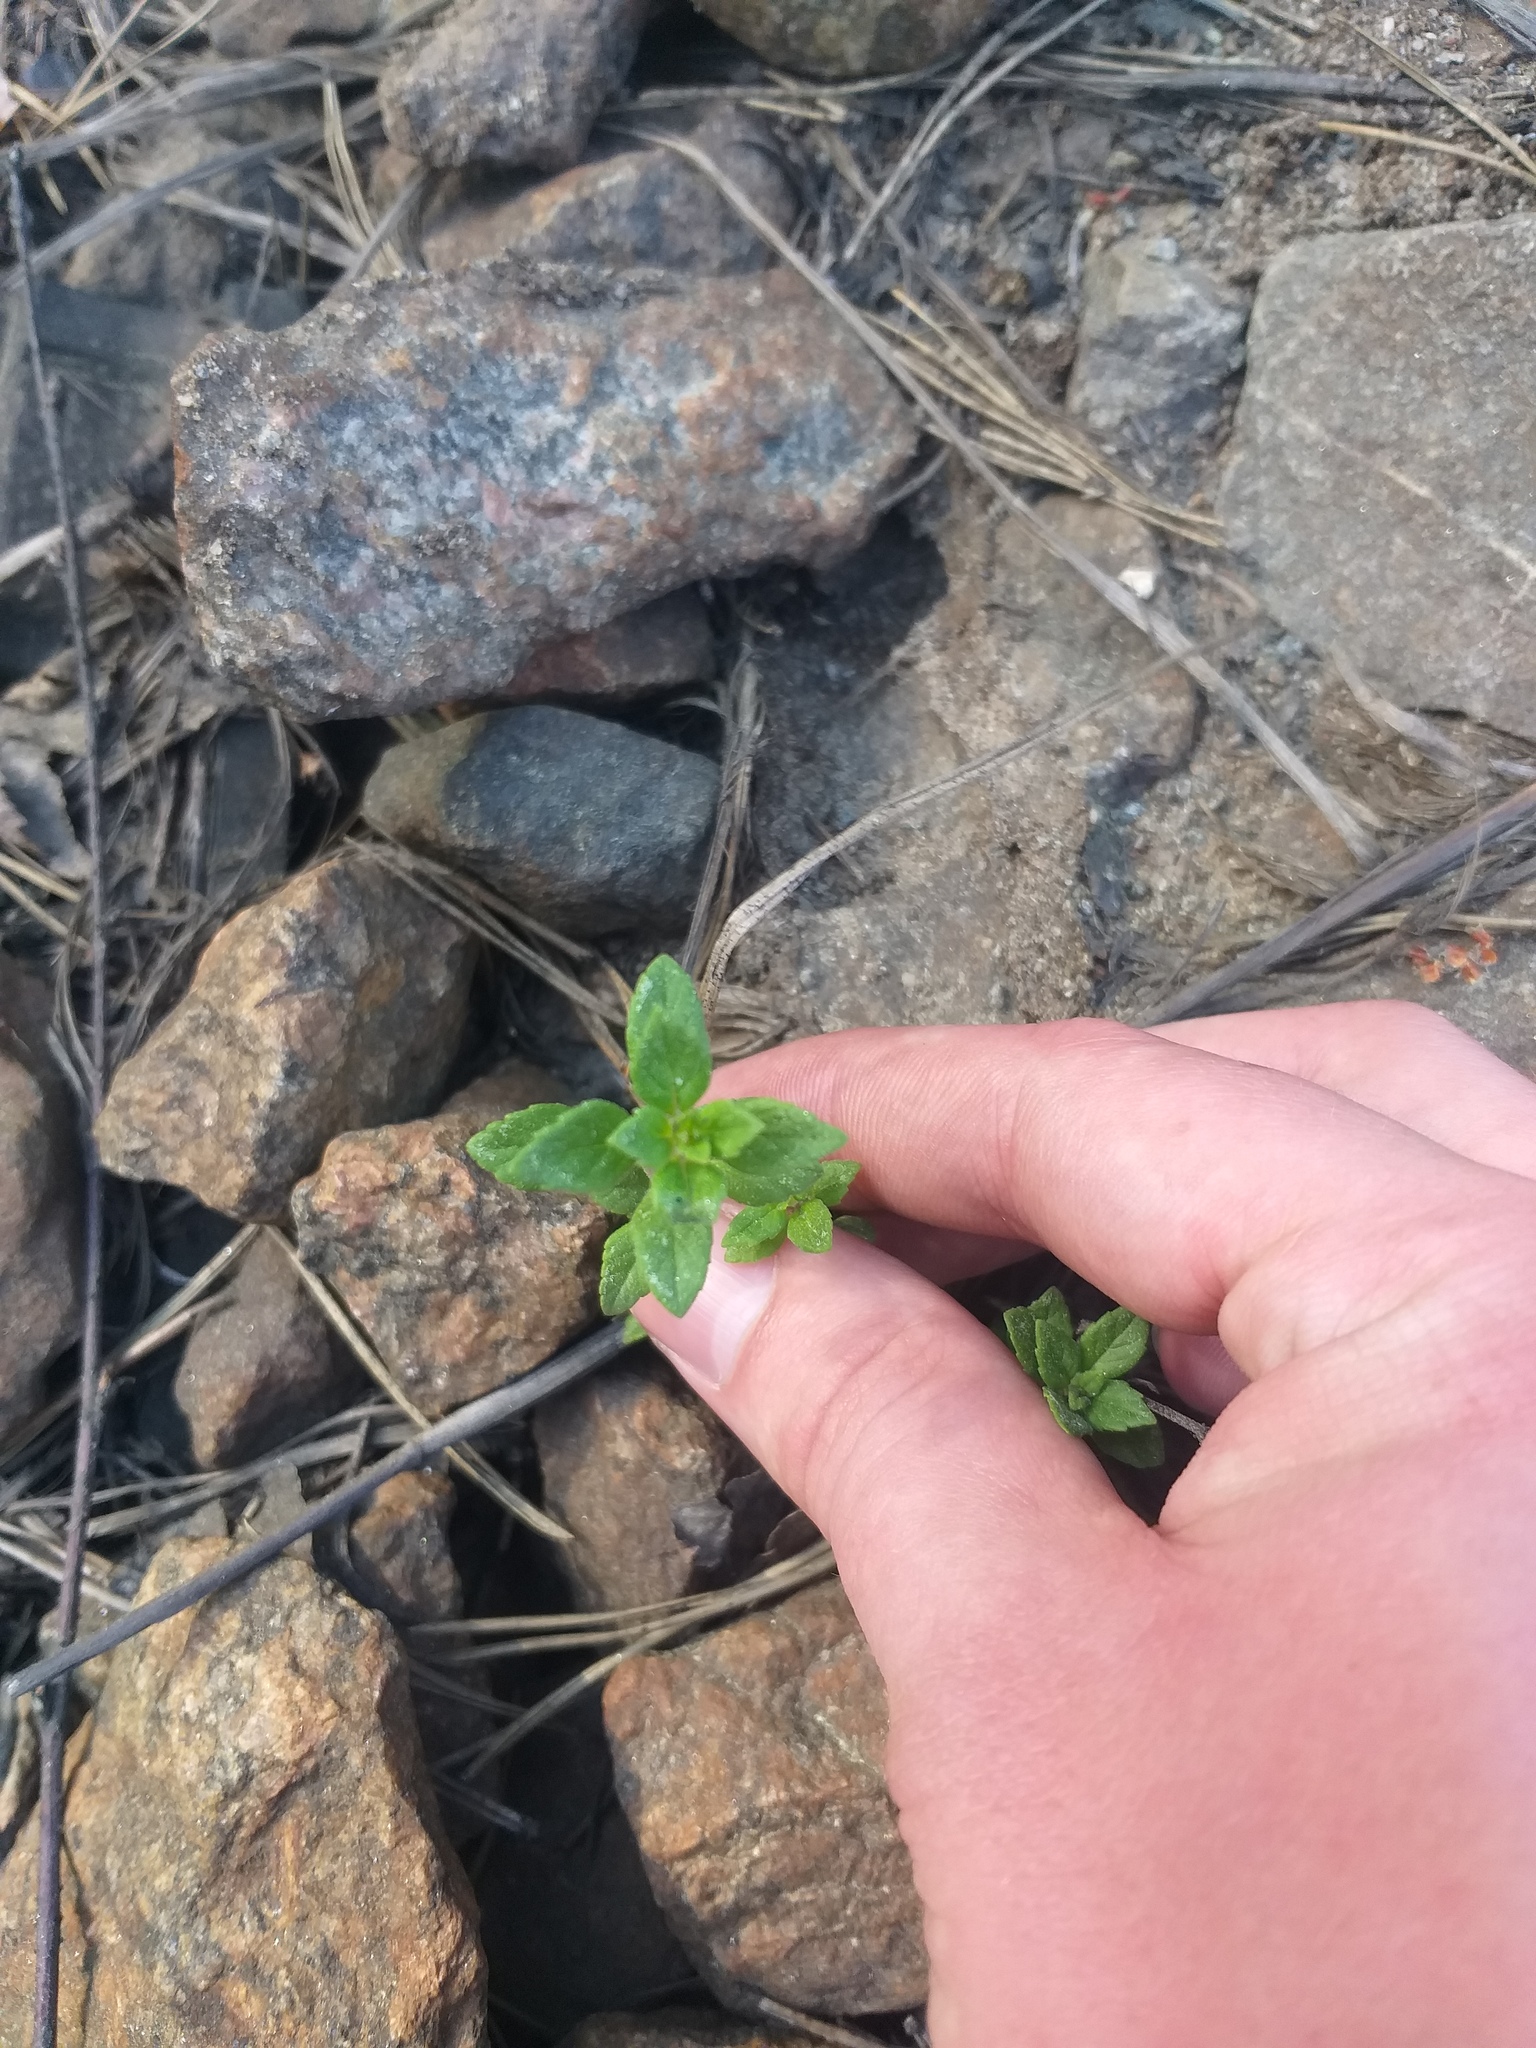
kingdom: Plantae
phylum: Tracheophyta
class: Magnoliopsida
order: Lamiales
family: Lamiaceae
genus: Clinopodium
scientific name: Clinopodium acinos
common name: Basil thyme
